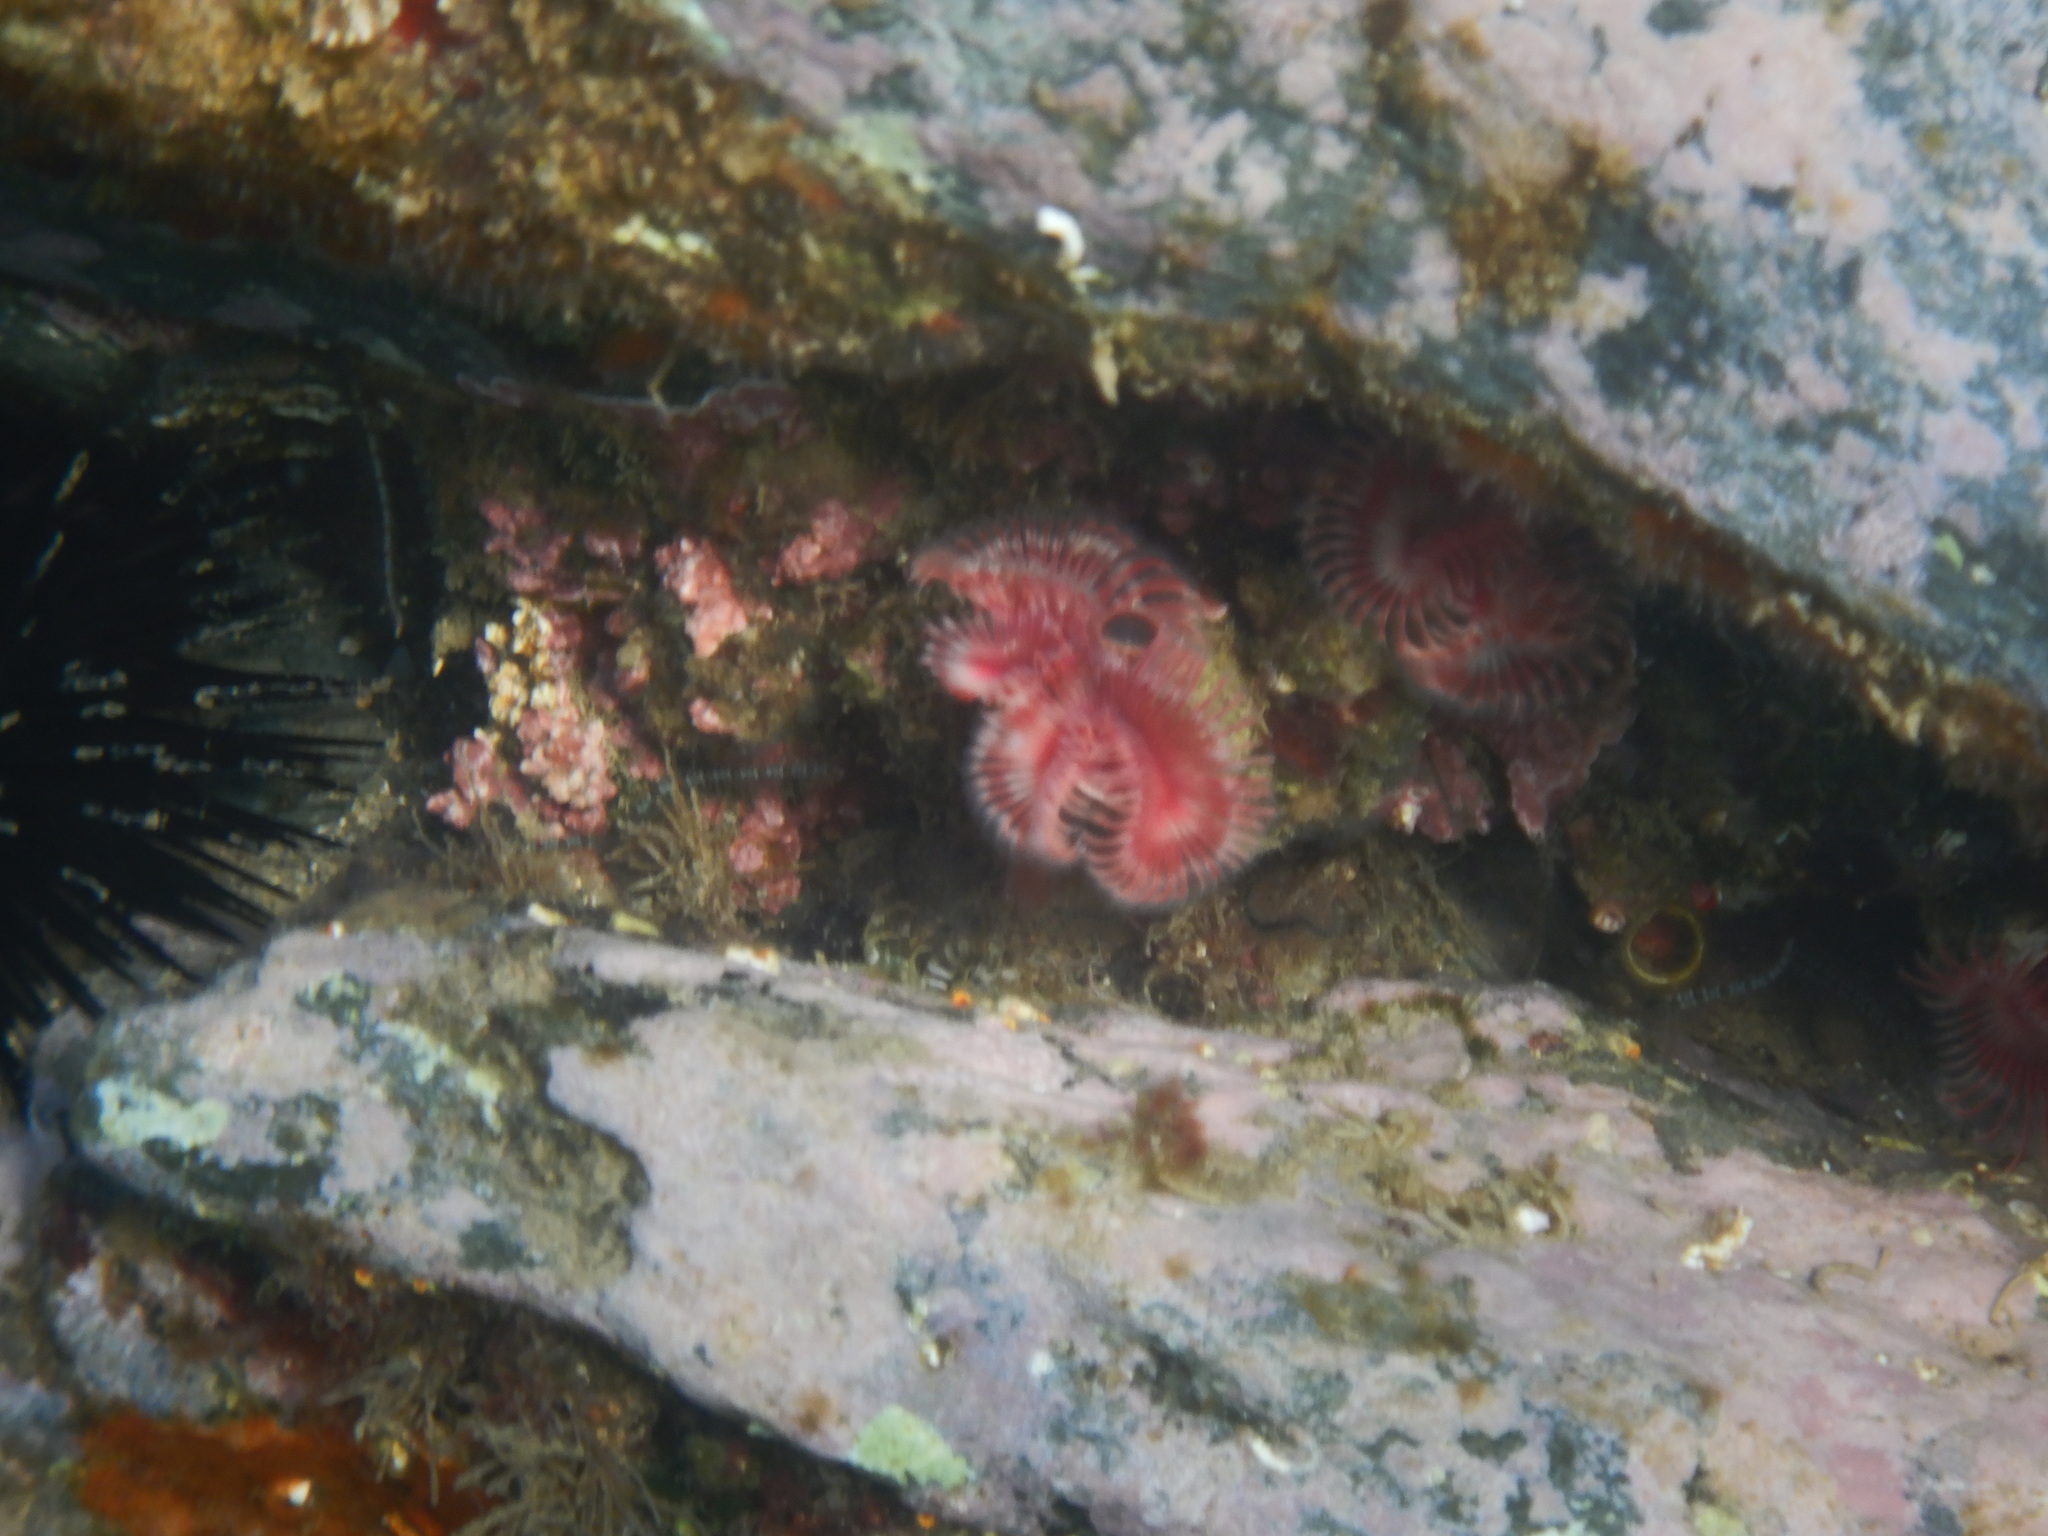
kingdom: Animalia
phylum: Annelida
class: Polychaeta
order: Sabellida
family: Serpulidae
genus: Serpula
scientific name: Serpula vermicularis
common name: Calcareous tubeworm
